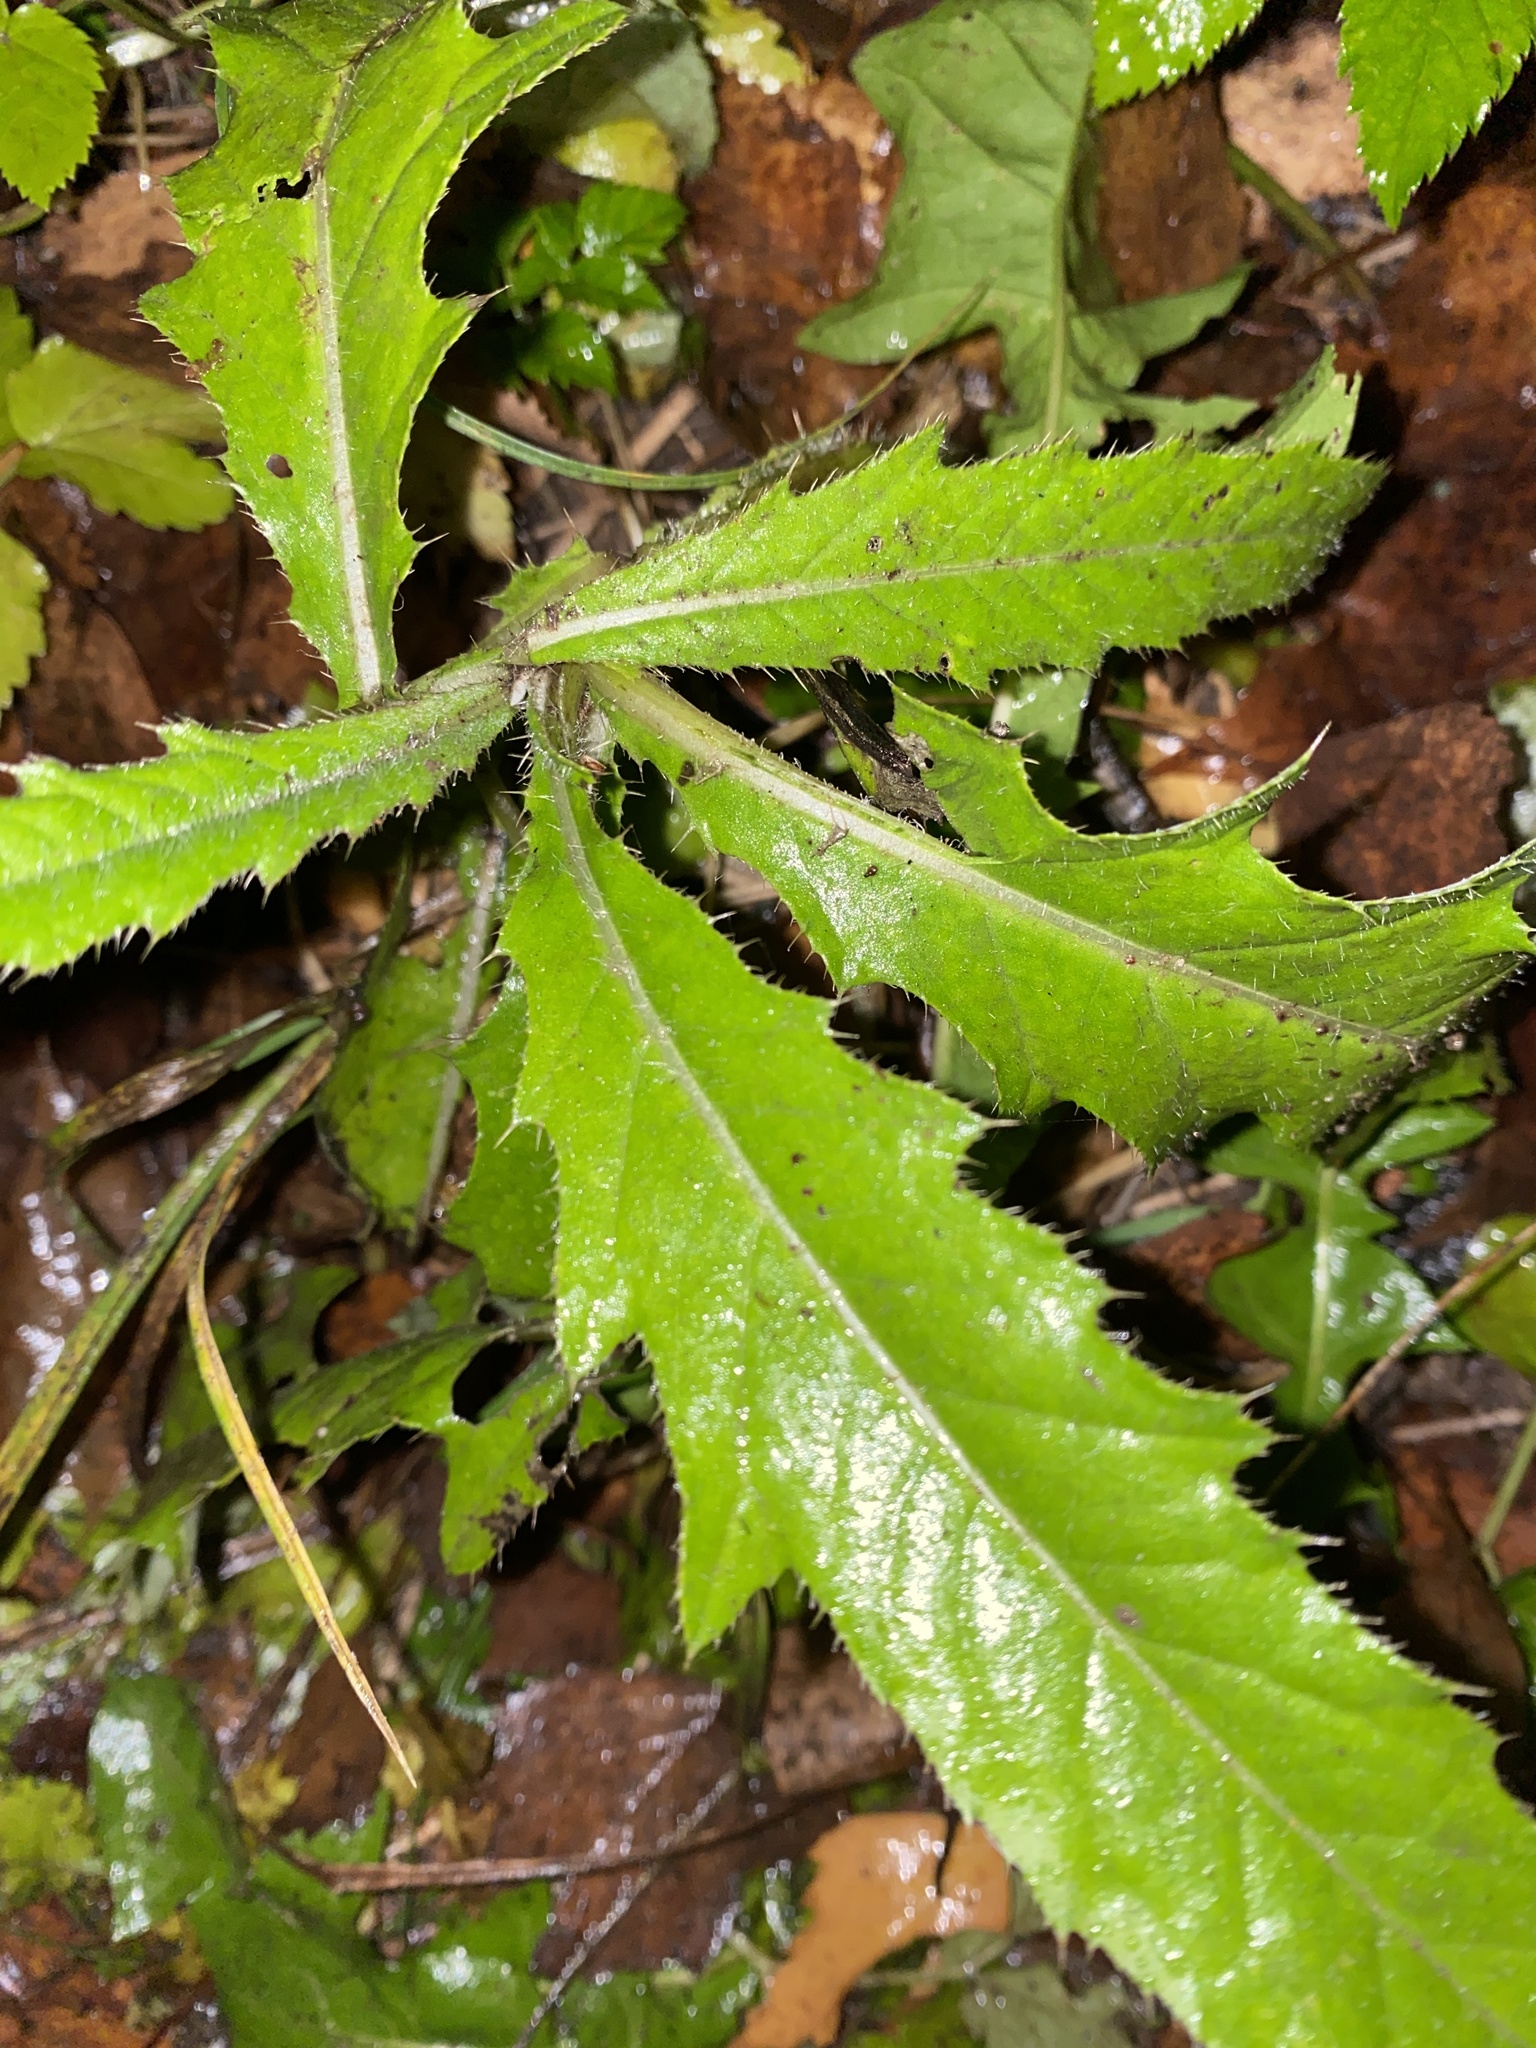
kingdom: Plantae
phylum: Tracheophyta
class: Magnoliopsida
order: Asterales
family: Asteraceae
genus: Cirsium
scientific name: Cirsium arvense
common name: Creeping thistle
